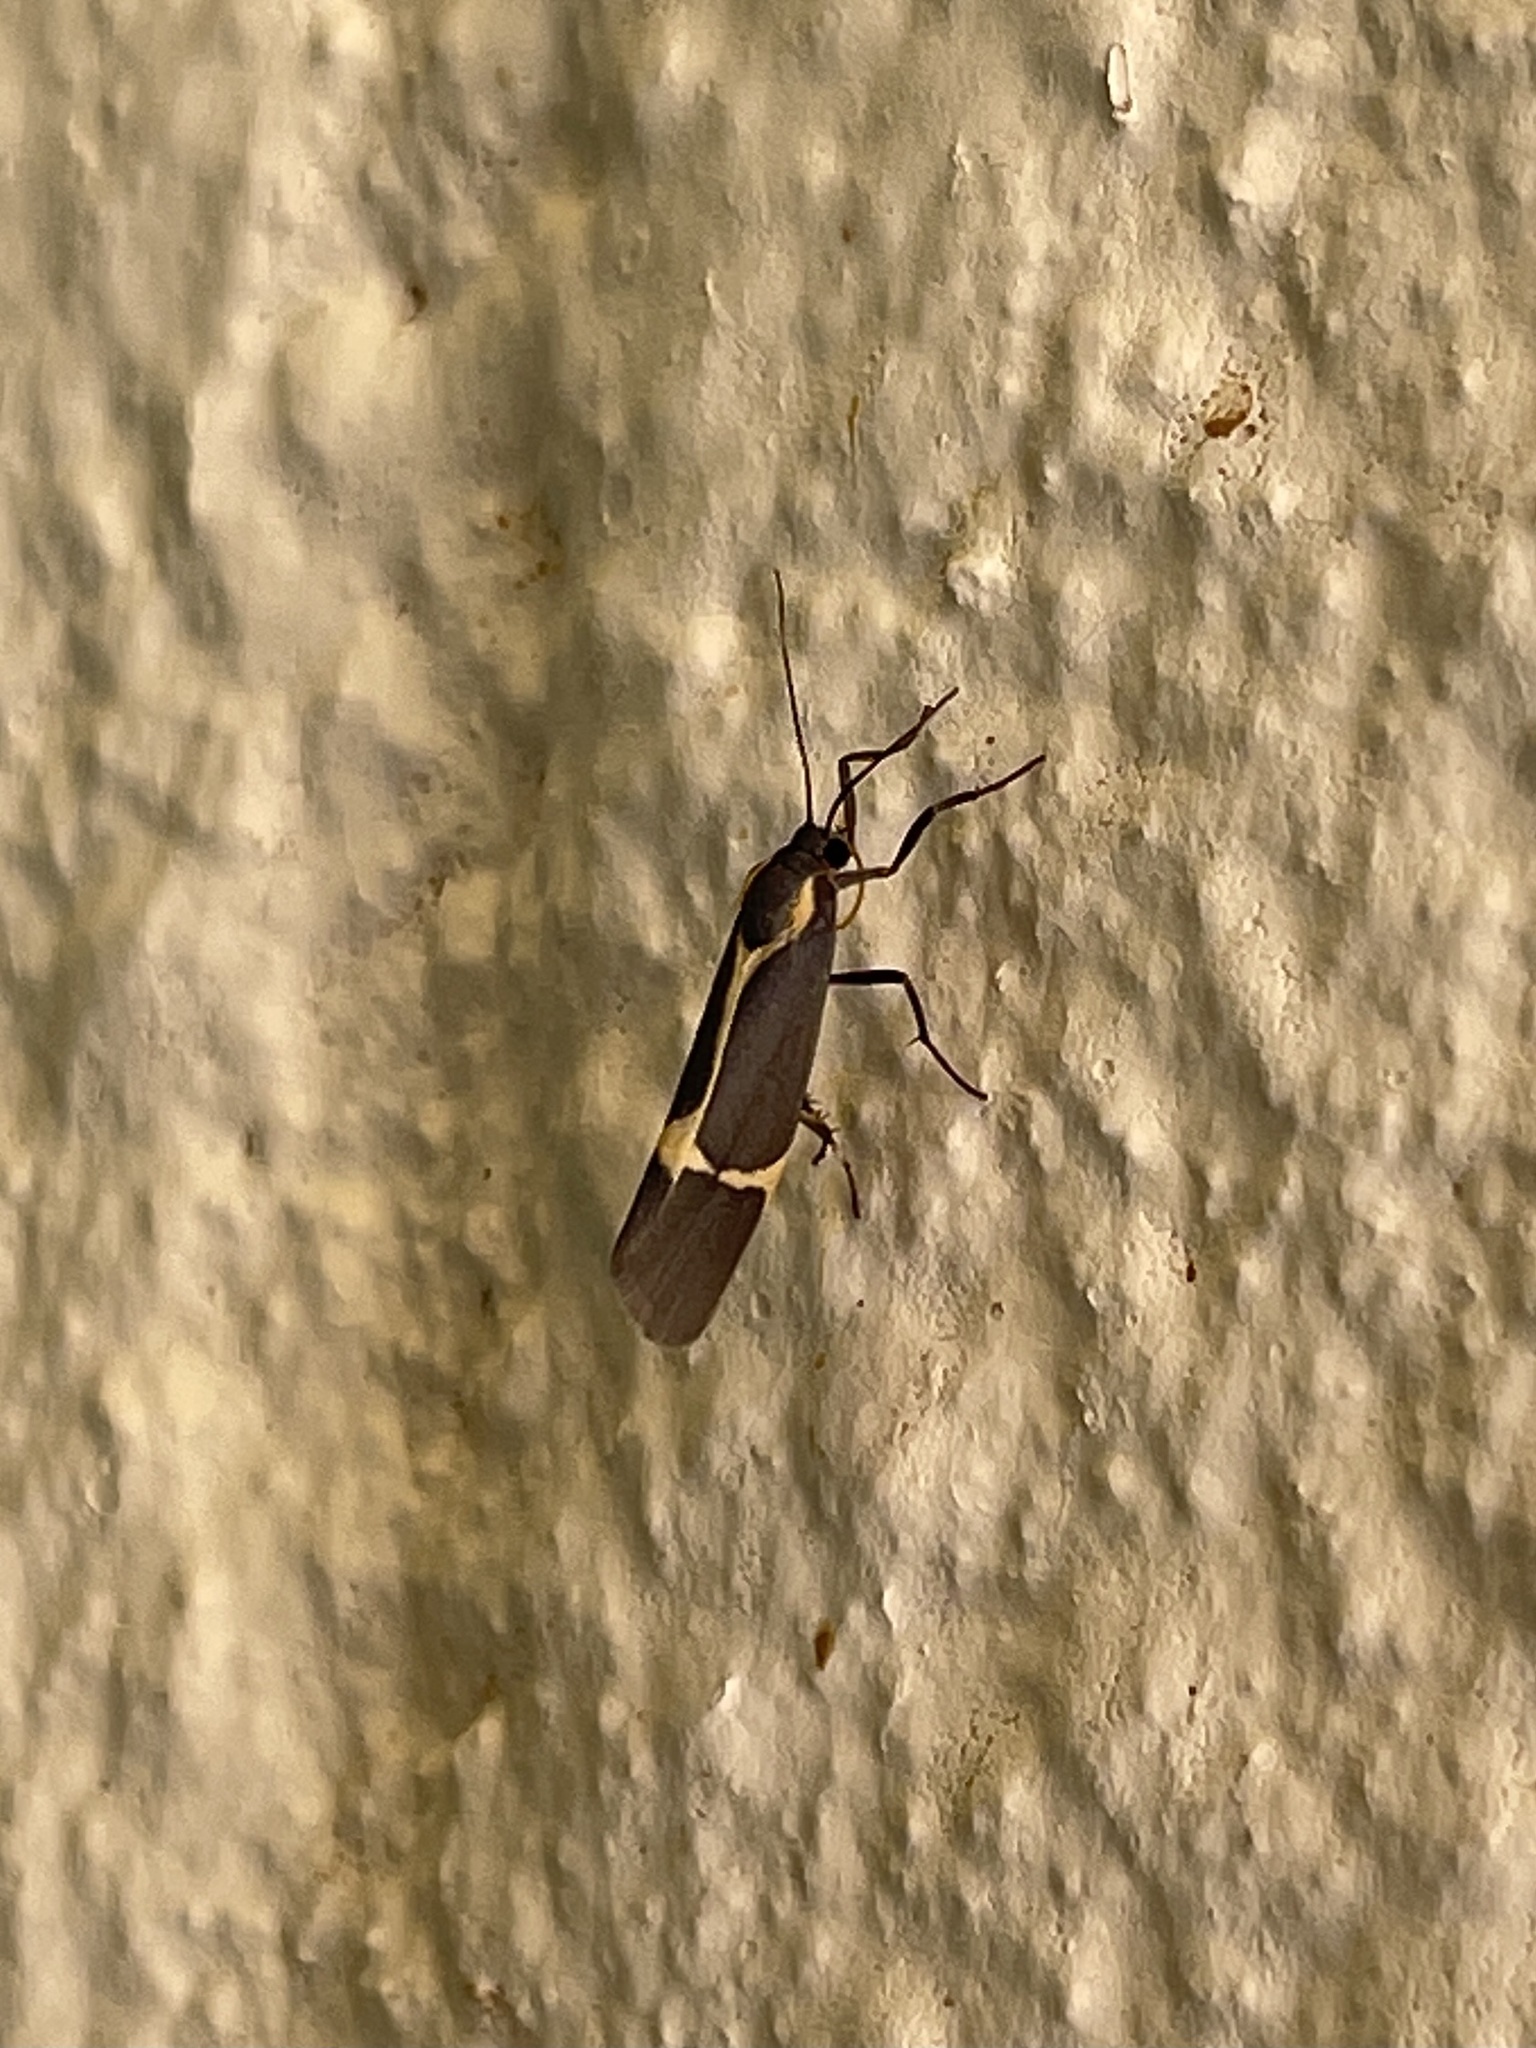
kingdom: Animalia
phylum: Arthropoda
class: Insecta
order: Lepidoptera
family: Erebidae
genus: Cisthene
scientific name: Cisthene barnesii
